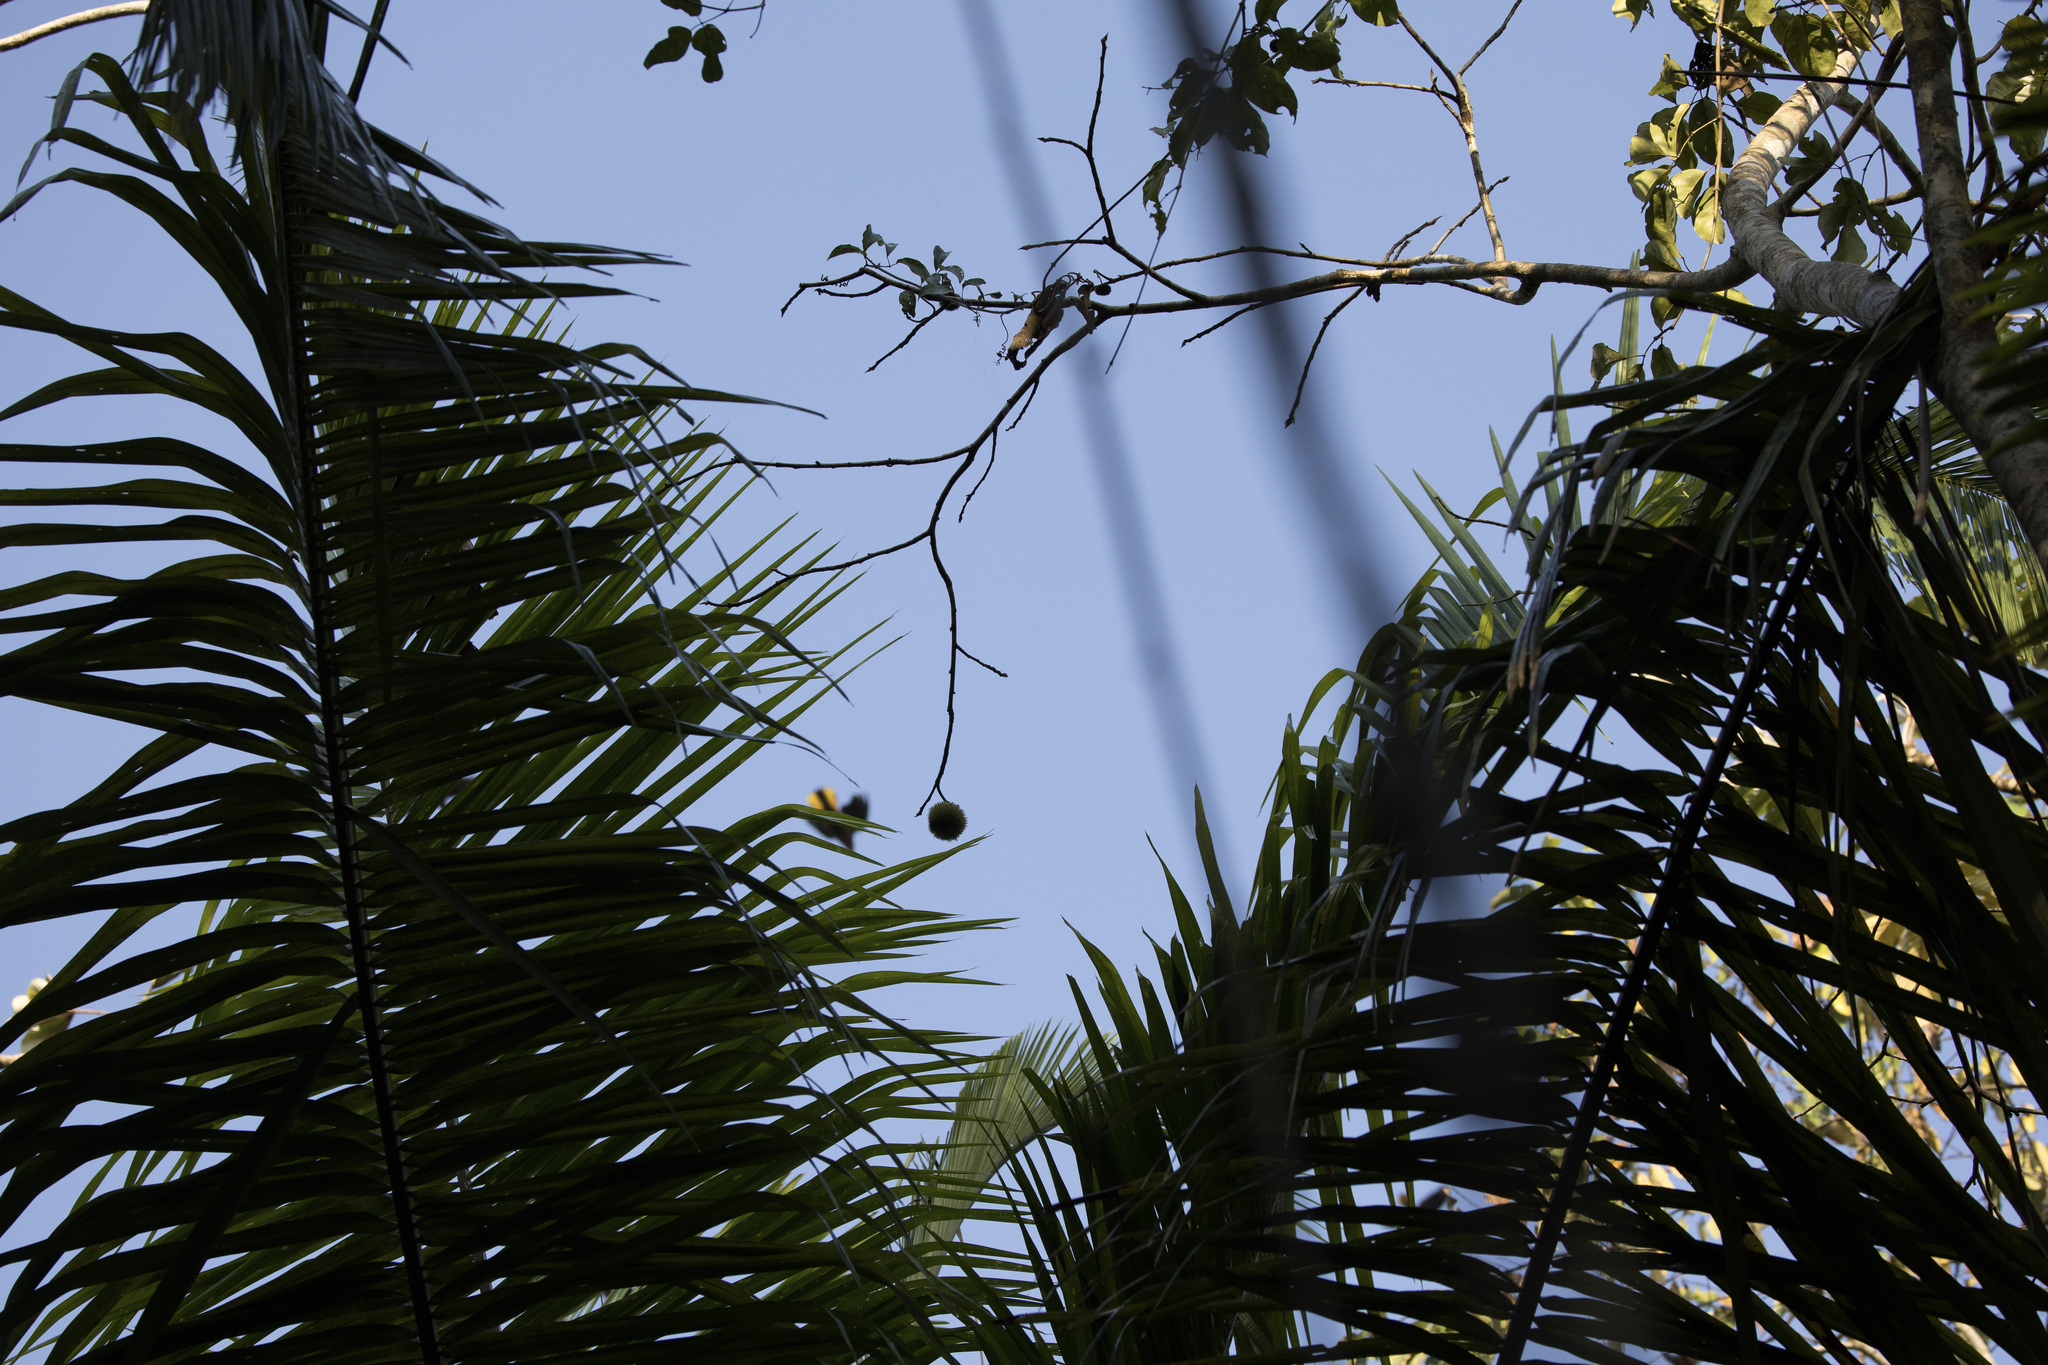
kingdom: Animalia
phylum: Chordata
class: Aves
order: Passeriformes
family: Icteridae
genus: Cacicus
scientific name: Cacicus cela
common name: Yellow-rumped cacique
